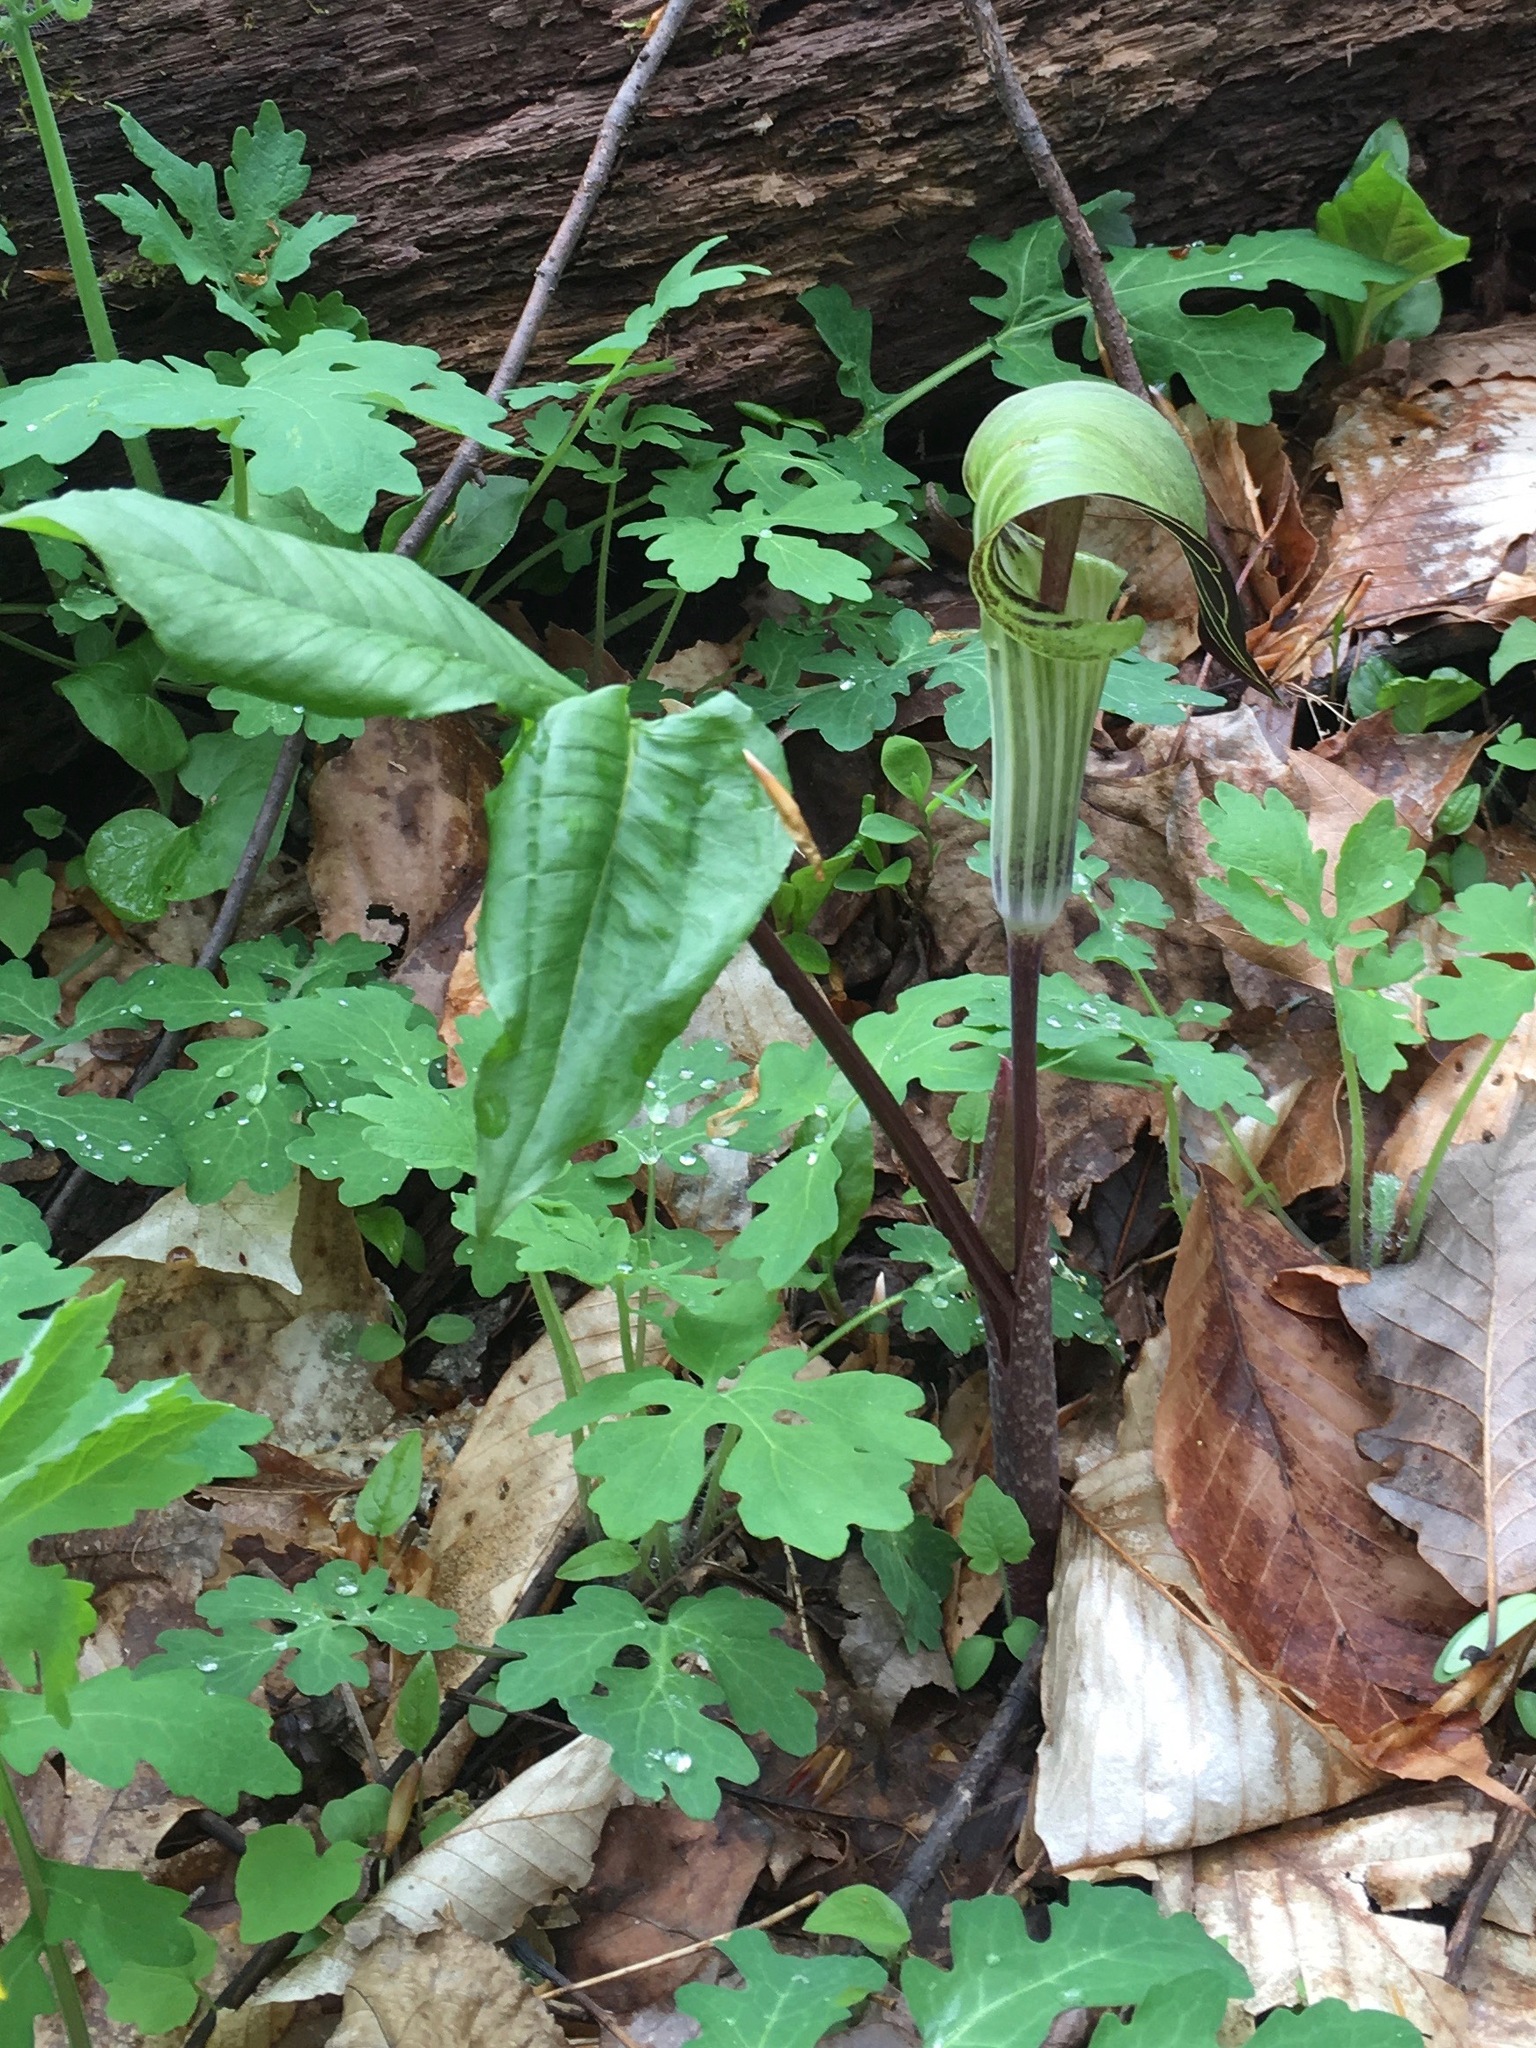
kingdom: Plantae
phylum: Tracheophyta
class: Liliopsida
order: Alismatales
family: Araceae
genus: Arisaema
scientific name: Arisaema triphyllum
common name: Jack-in-the-pulpit
